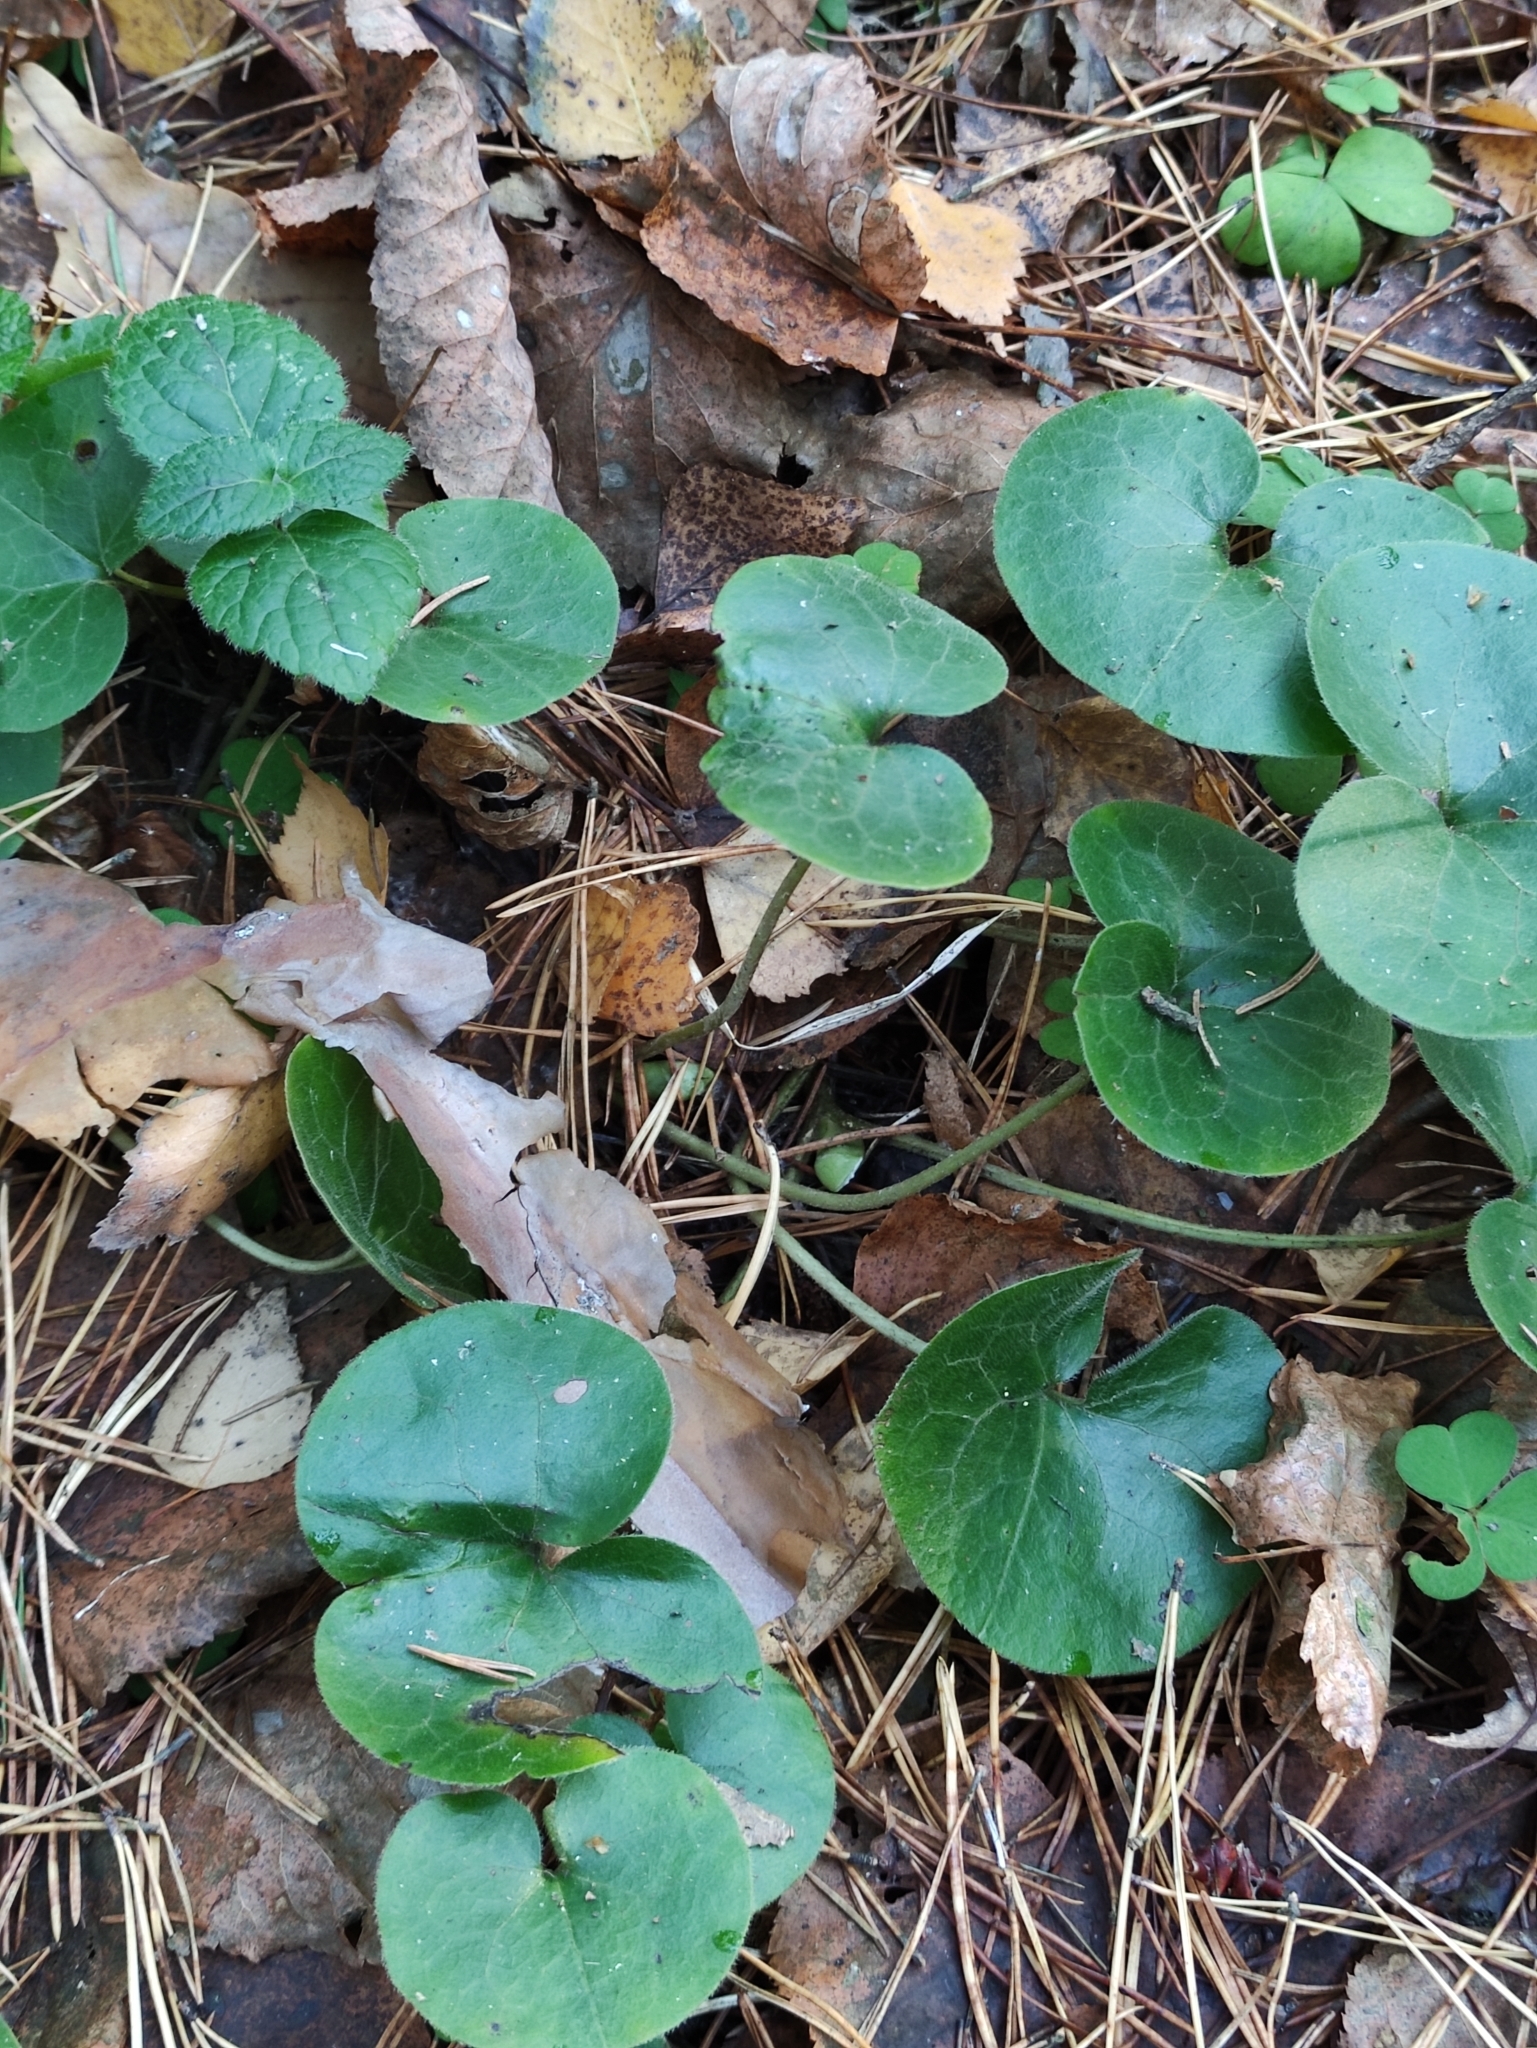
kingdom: Plantae
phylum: Tracheophyta
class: Magnoliopsida
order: Piperales
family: Aristolochiaceae
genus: Asarum
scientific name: Asarum europaeum
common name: Asarabacca
